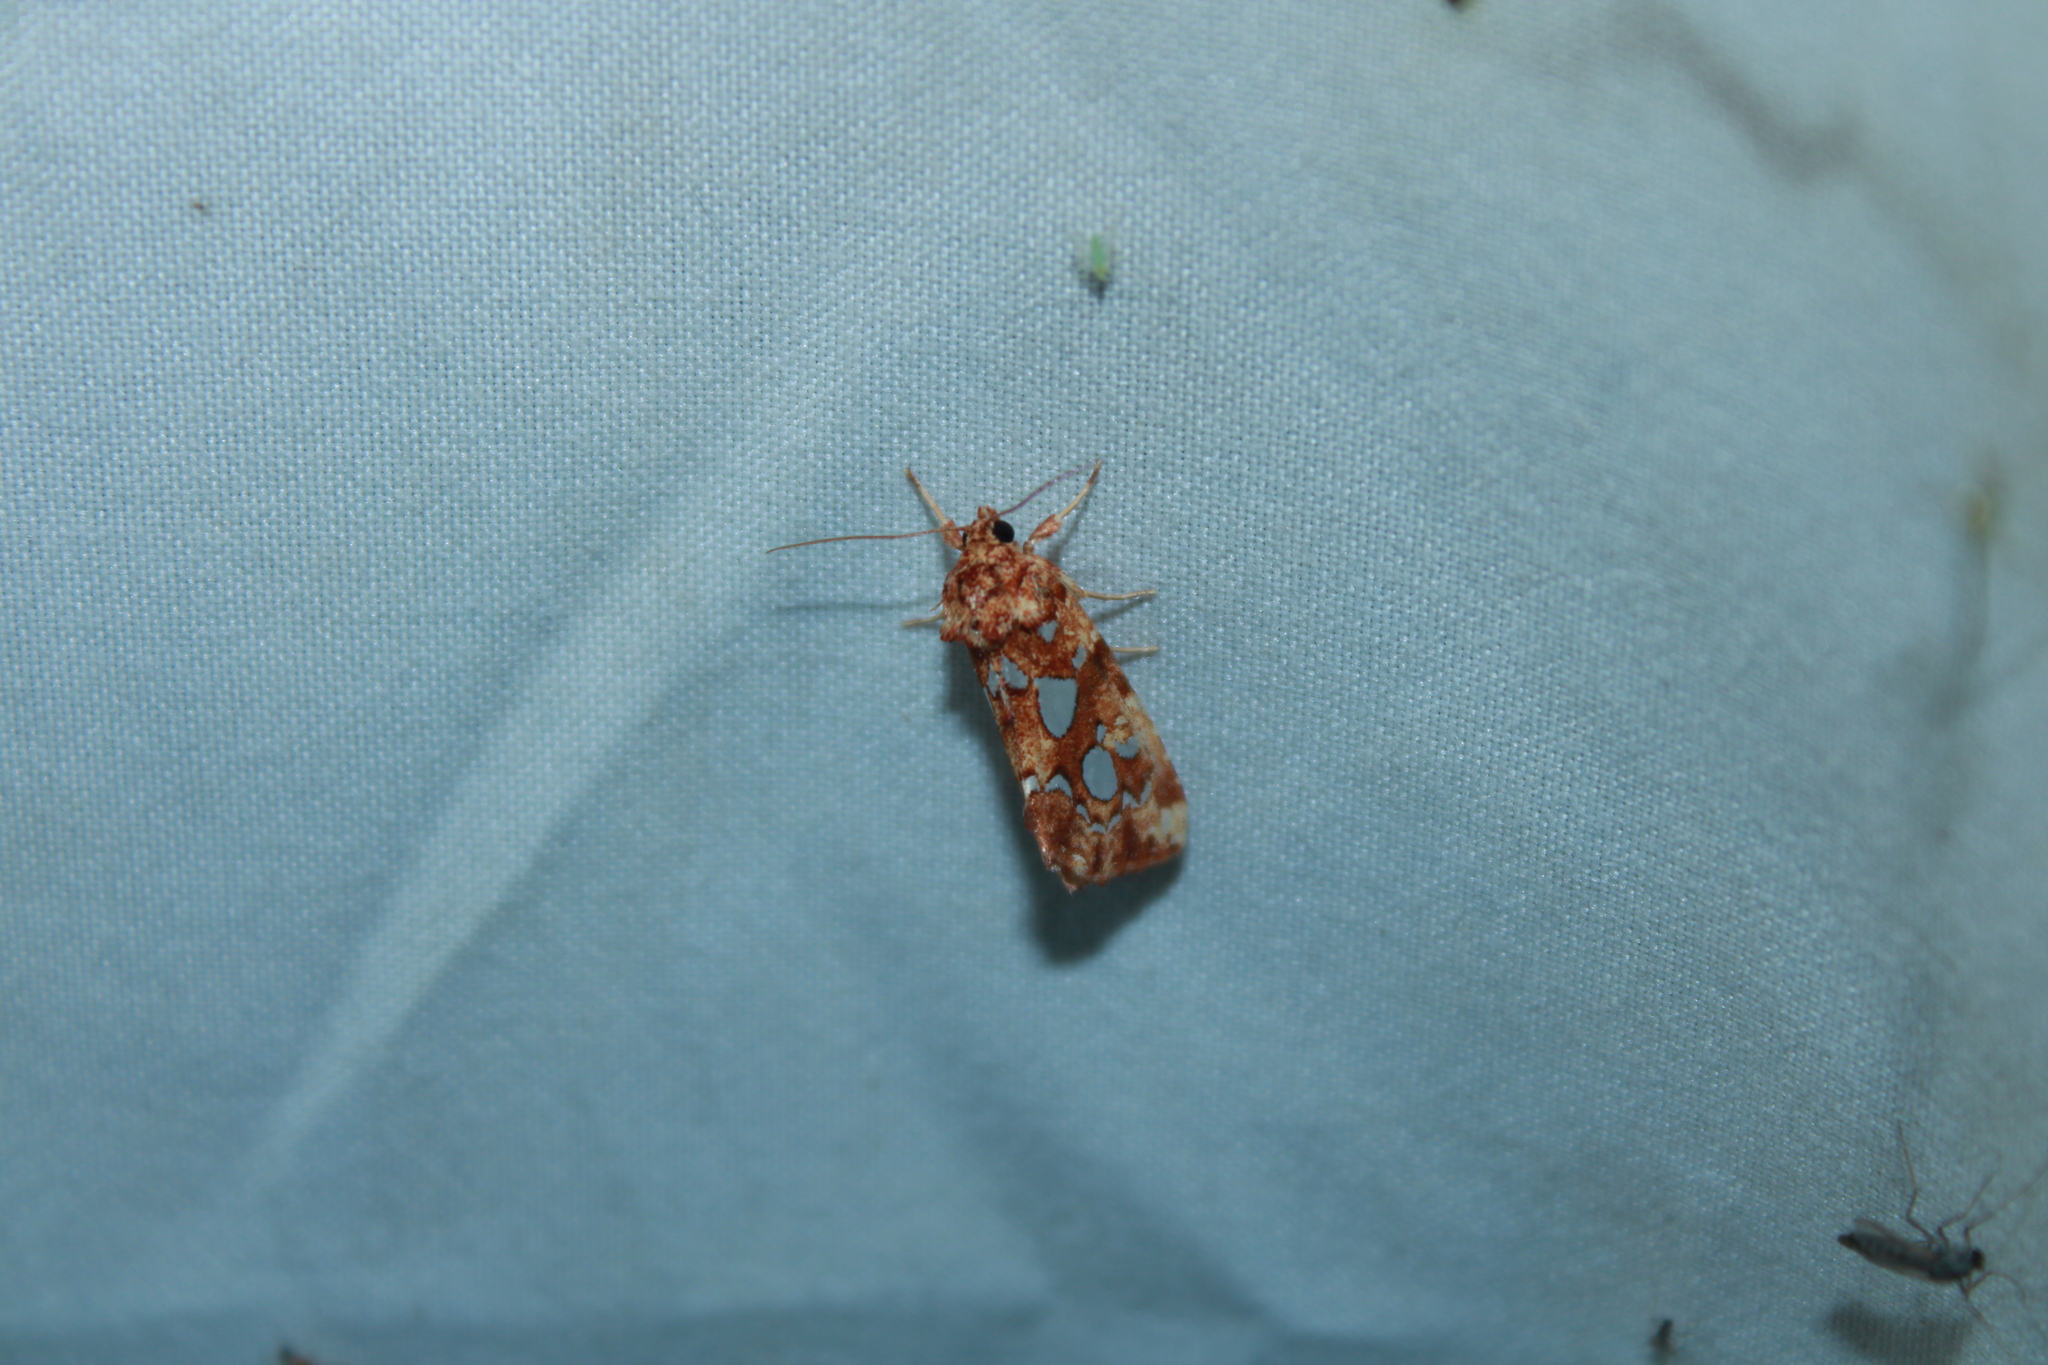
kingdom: Animalia
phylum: Arthropoda
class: Insecta
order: Lepidoptera
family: Noctuidae
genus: Callopistria
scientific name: Callopistria cordata
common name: Silver-spotted fern moth
